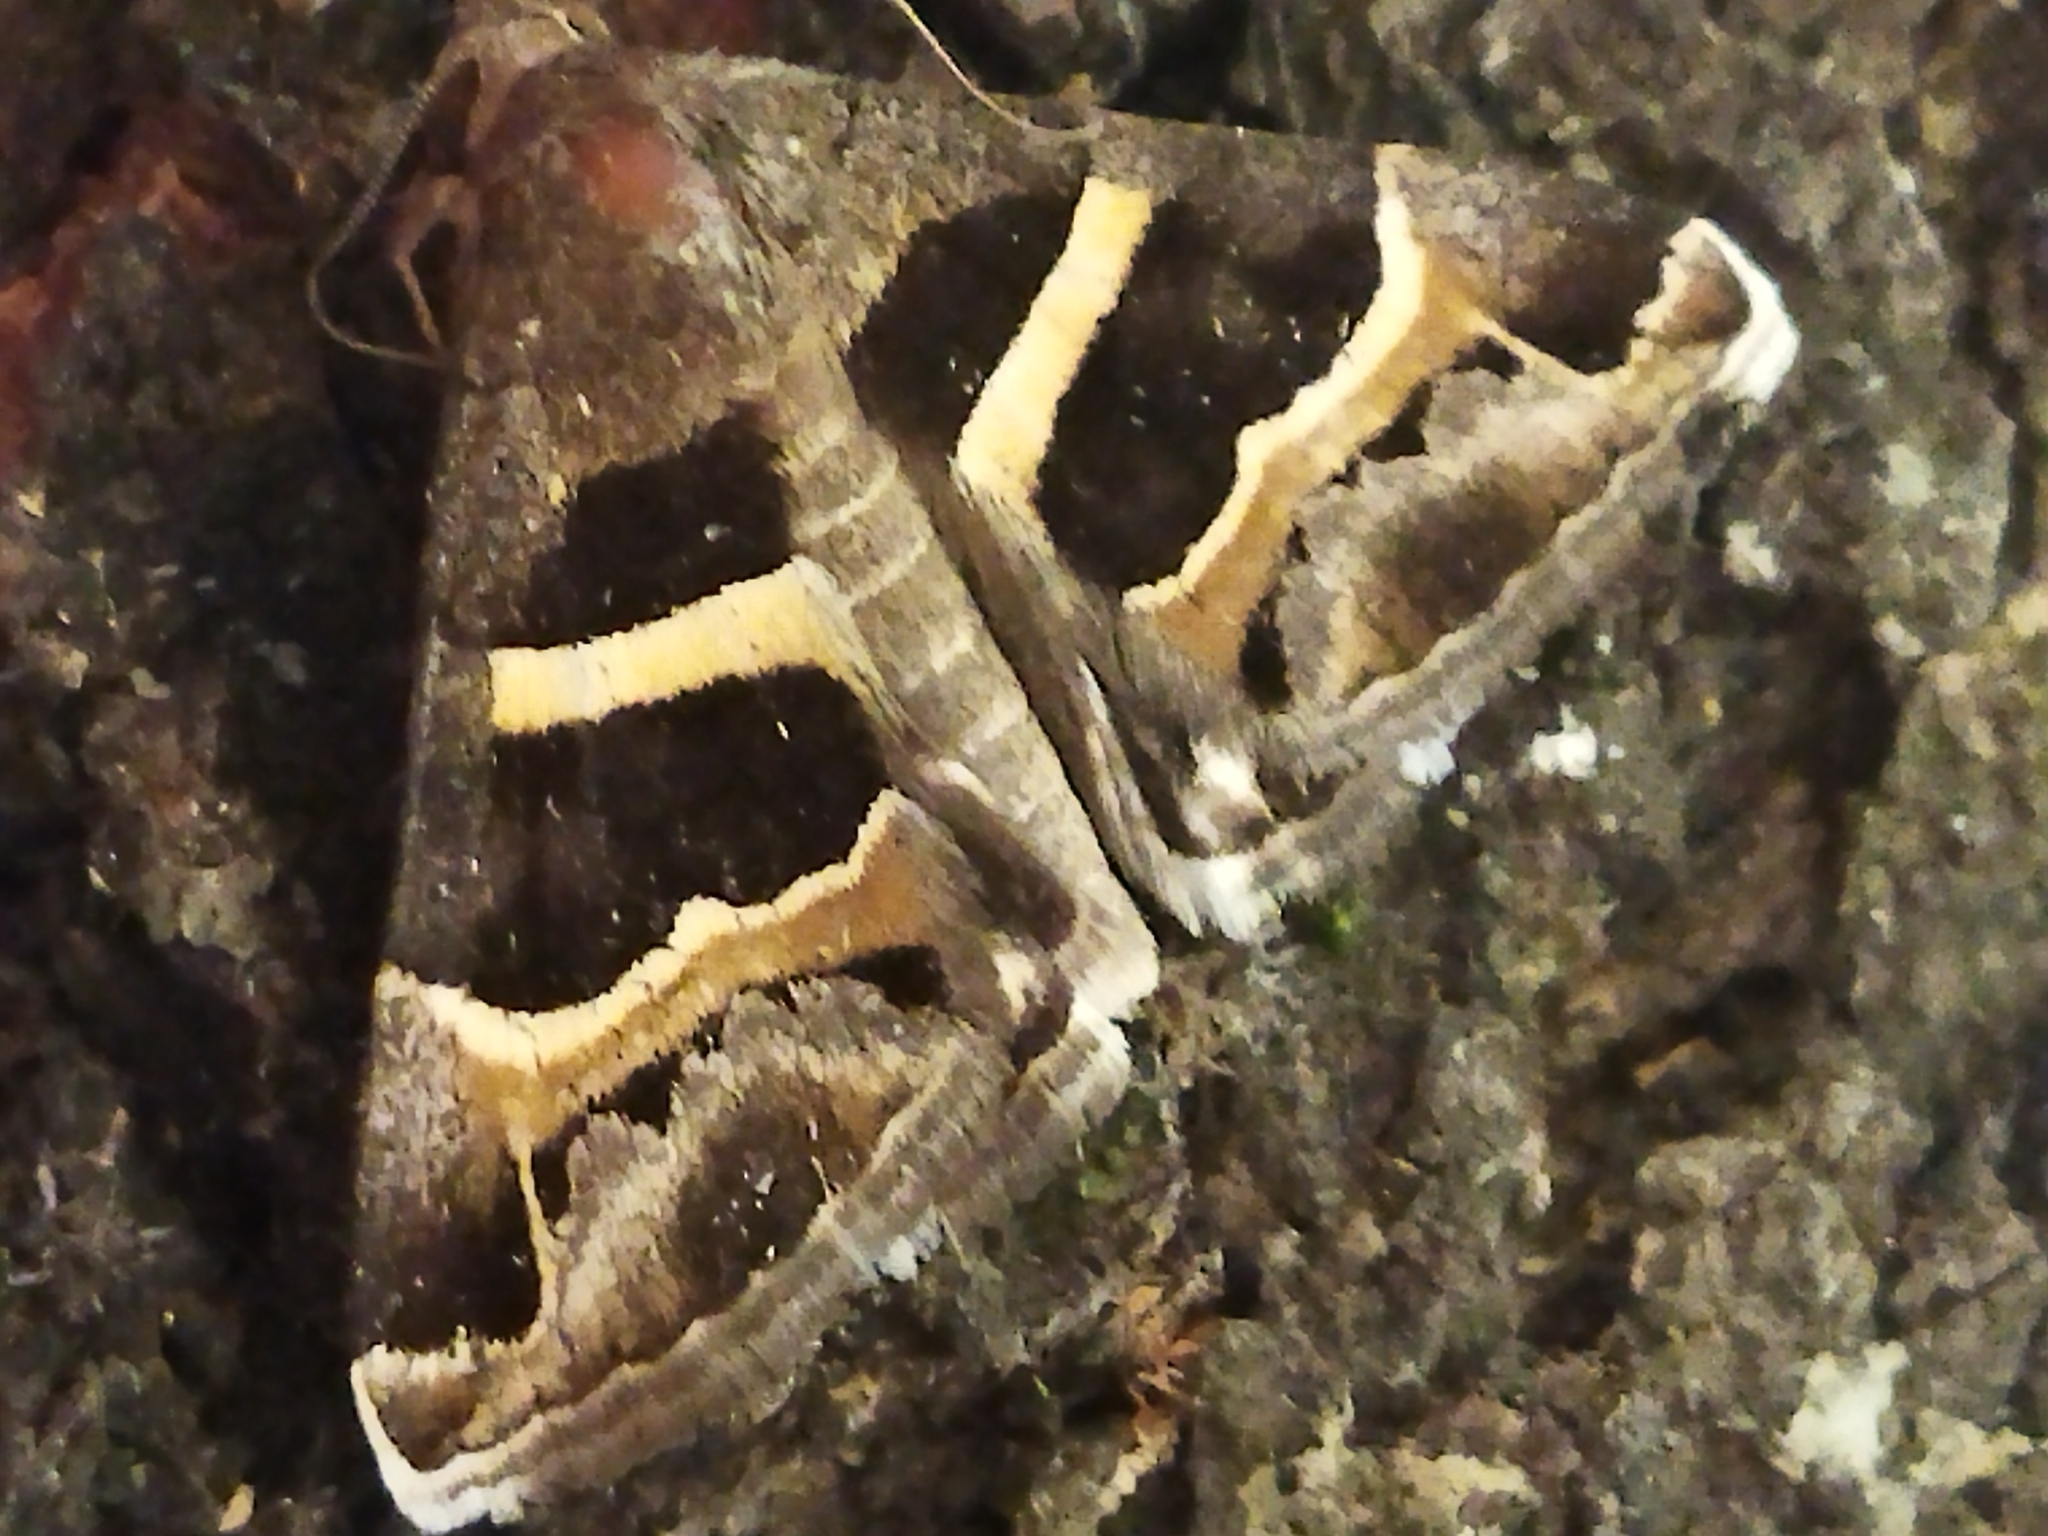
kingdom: Animalia
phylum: Arthropoda
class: Insecta
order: Lepidoptera
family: Erebidae
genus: Grammodes
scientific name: Grammodes stolida
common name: Geometrician
